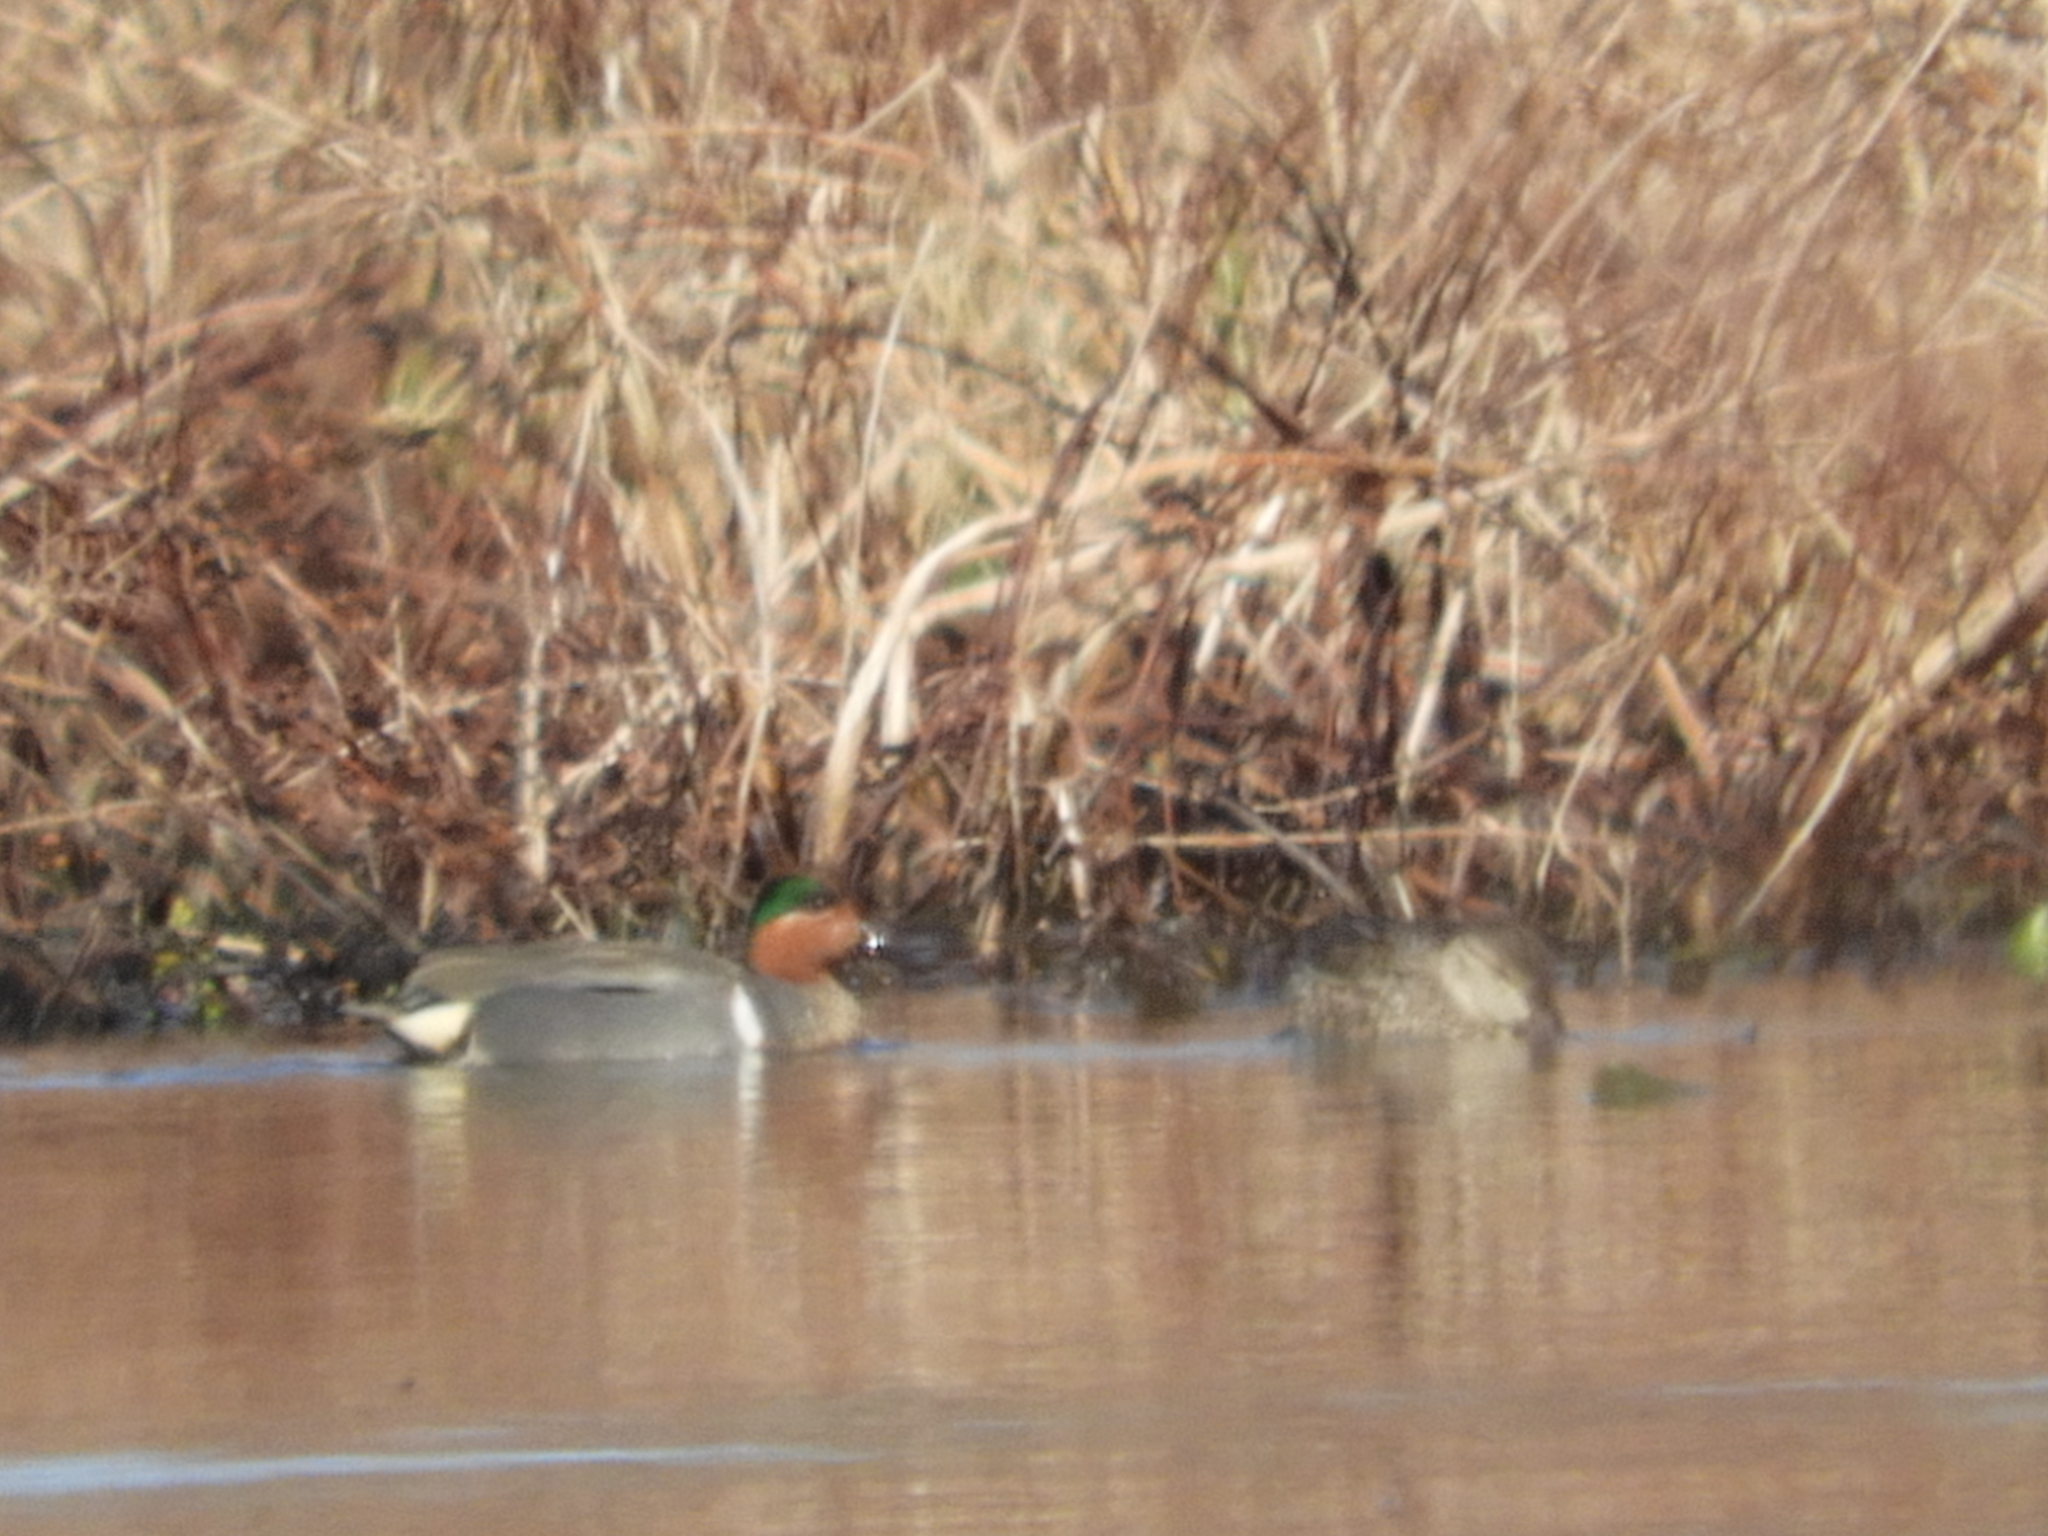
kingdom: Animalia
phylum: Chordata
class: Aves
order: Anseriformes
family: Anatidae
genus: Anas
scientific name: Anas crecca
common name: Eurasian teal
